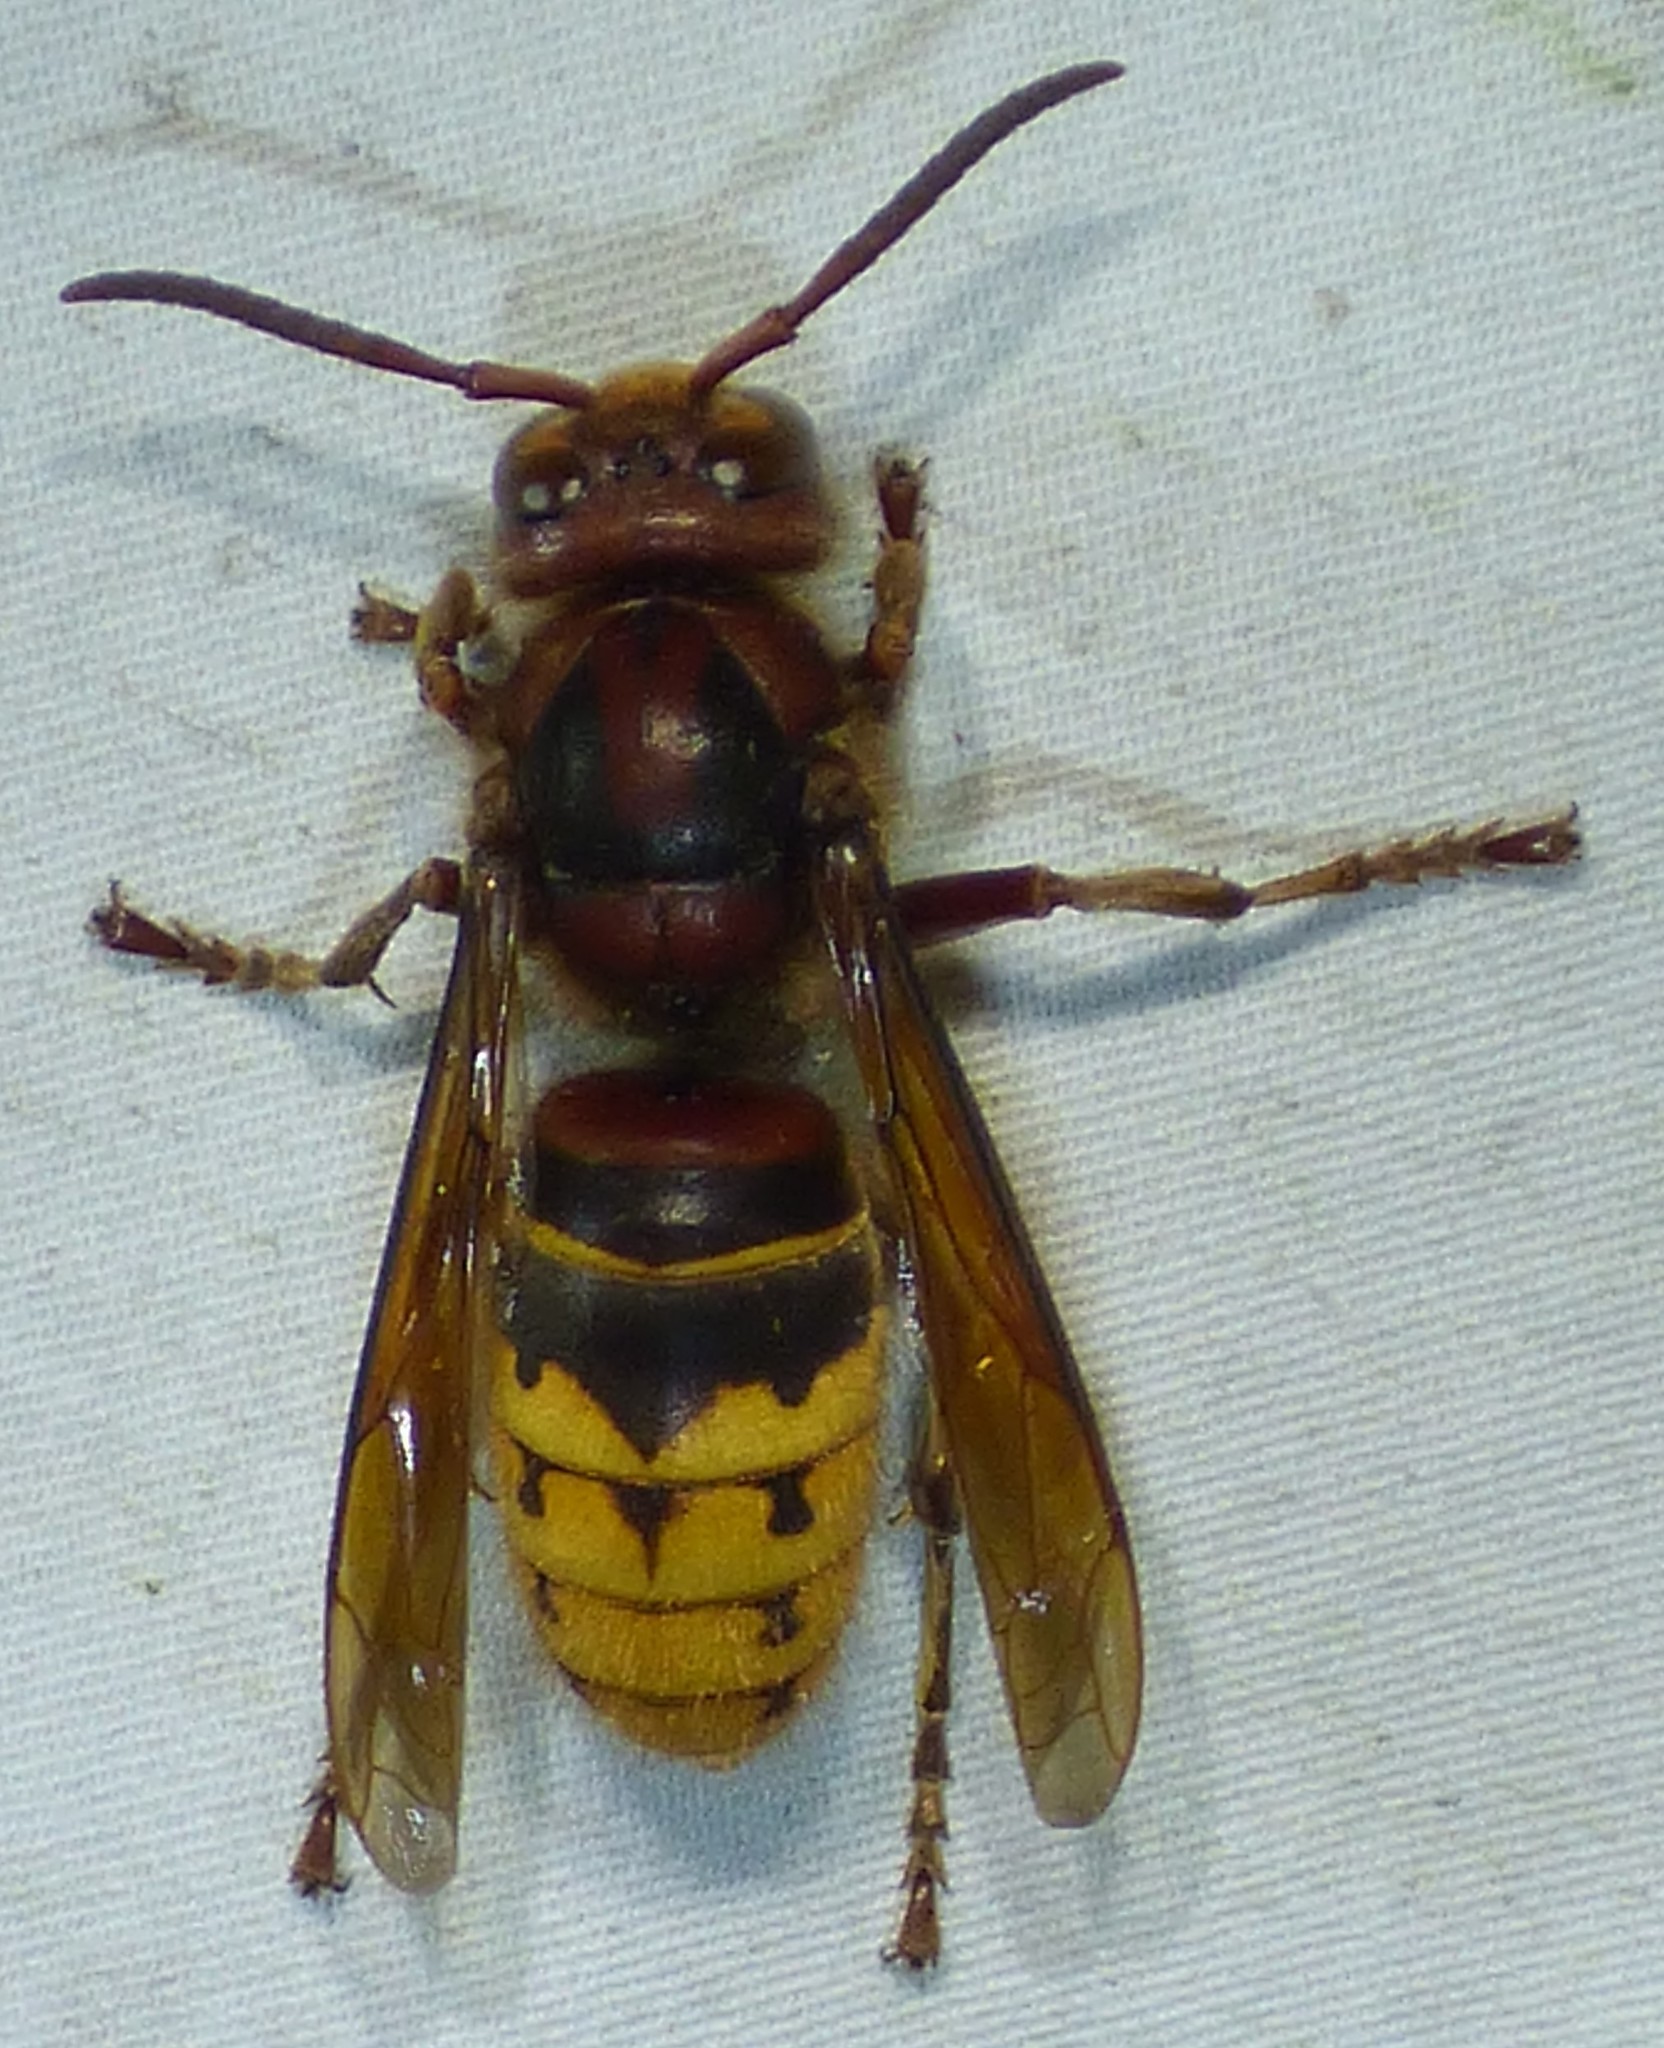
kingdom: Animalia
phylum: Arthropoda
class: Insecta
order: Hymenoptera
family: Vespidae
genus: Vespa
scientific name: Vespa crabro
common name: Hornet
